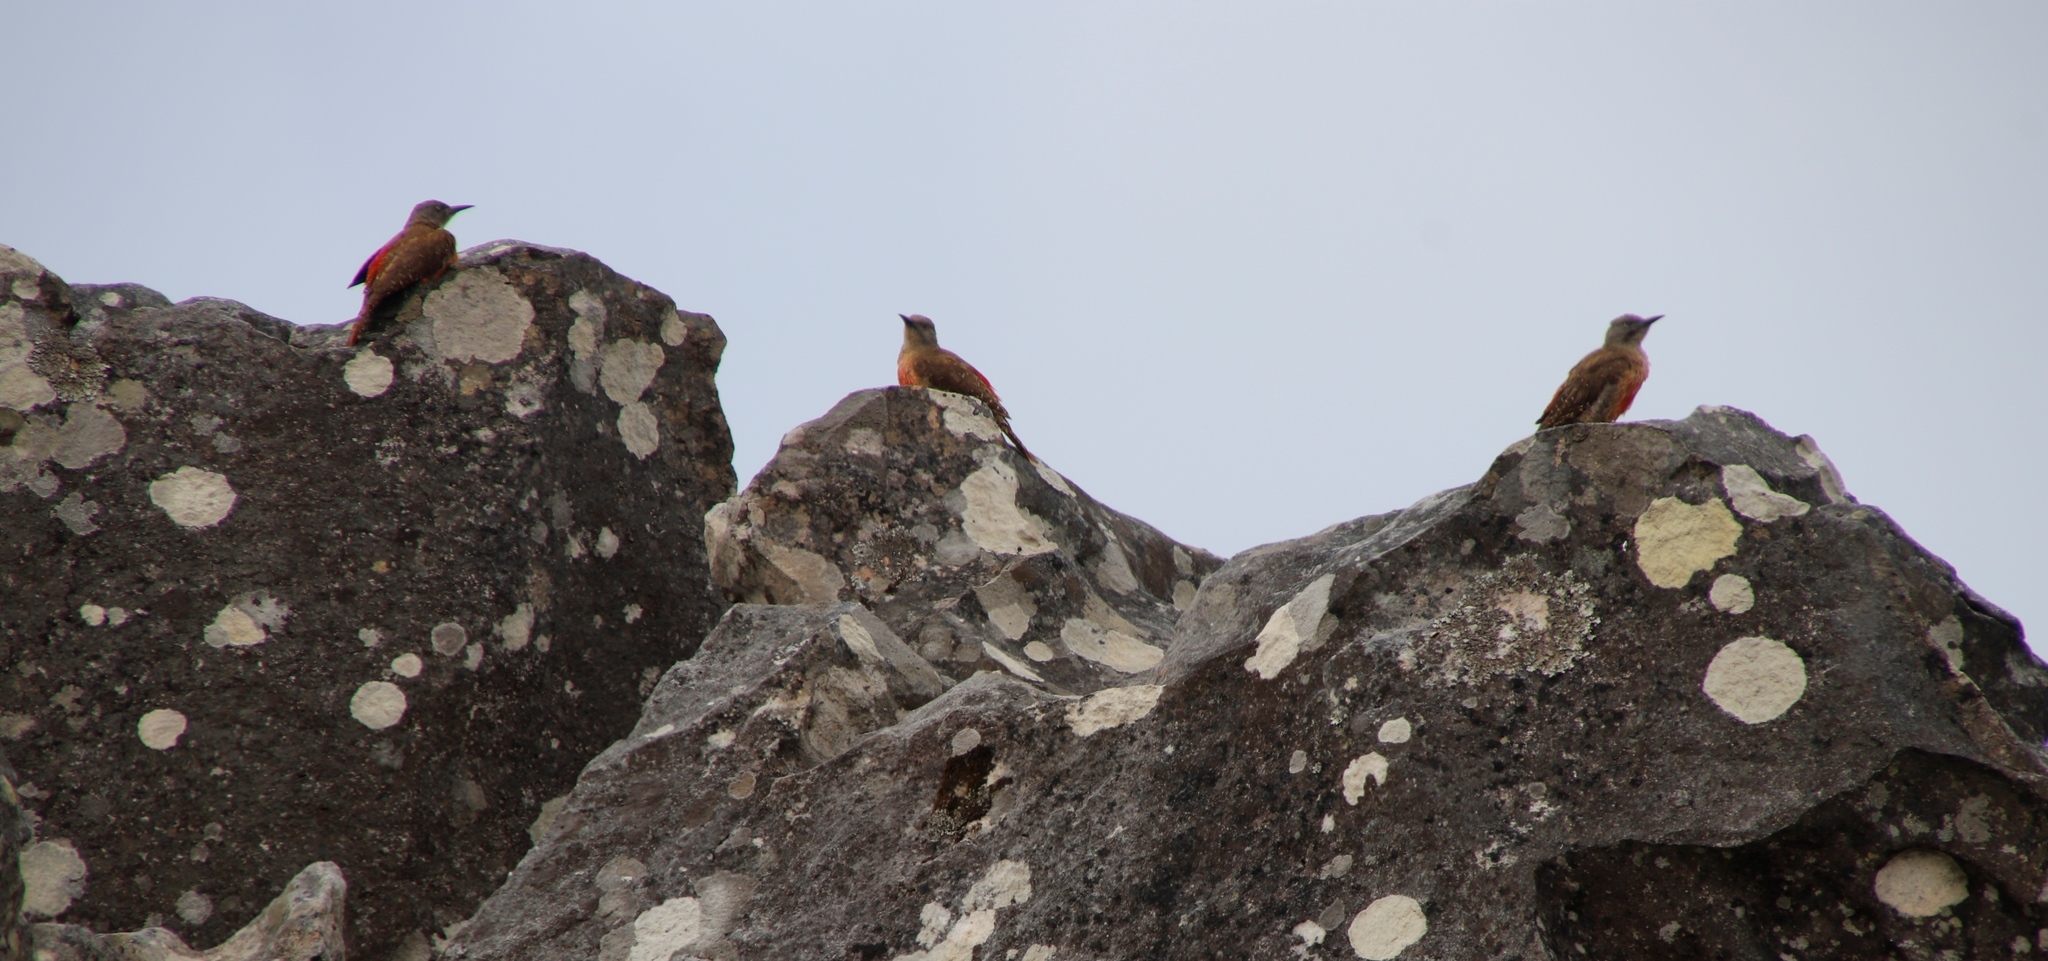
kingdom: Animalia
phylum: Chordata
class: Aves
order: Piciformes
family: Picidae
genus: Geocolaptes
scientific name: Geocolaptes olivaceus
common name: Ground woodpecker
